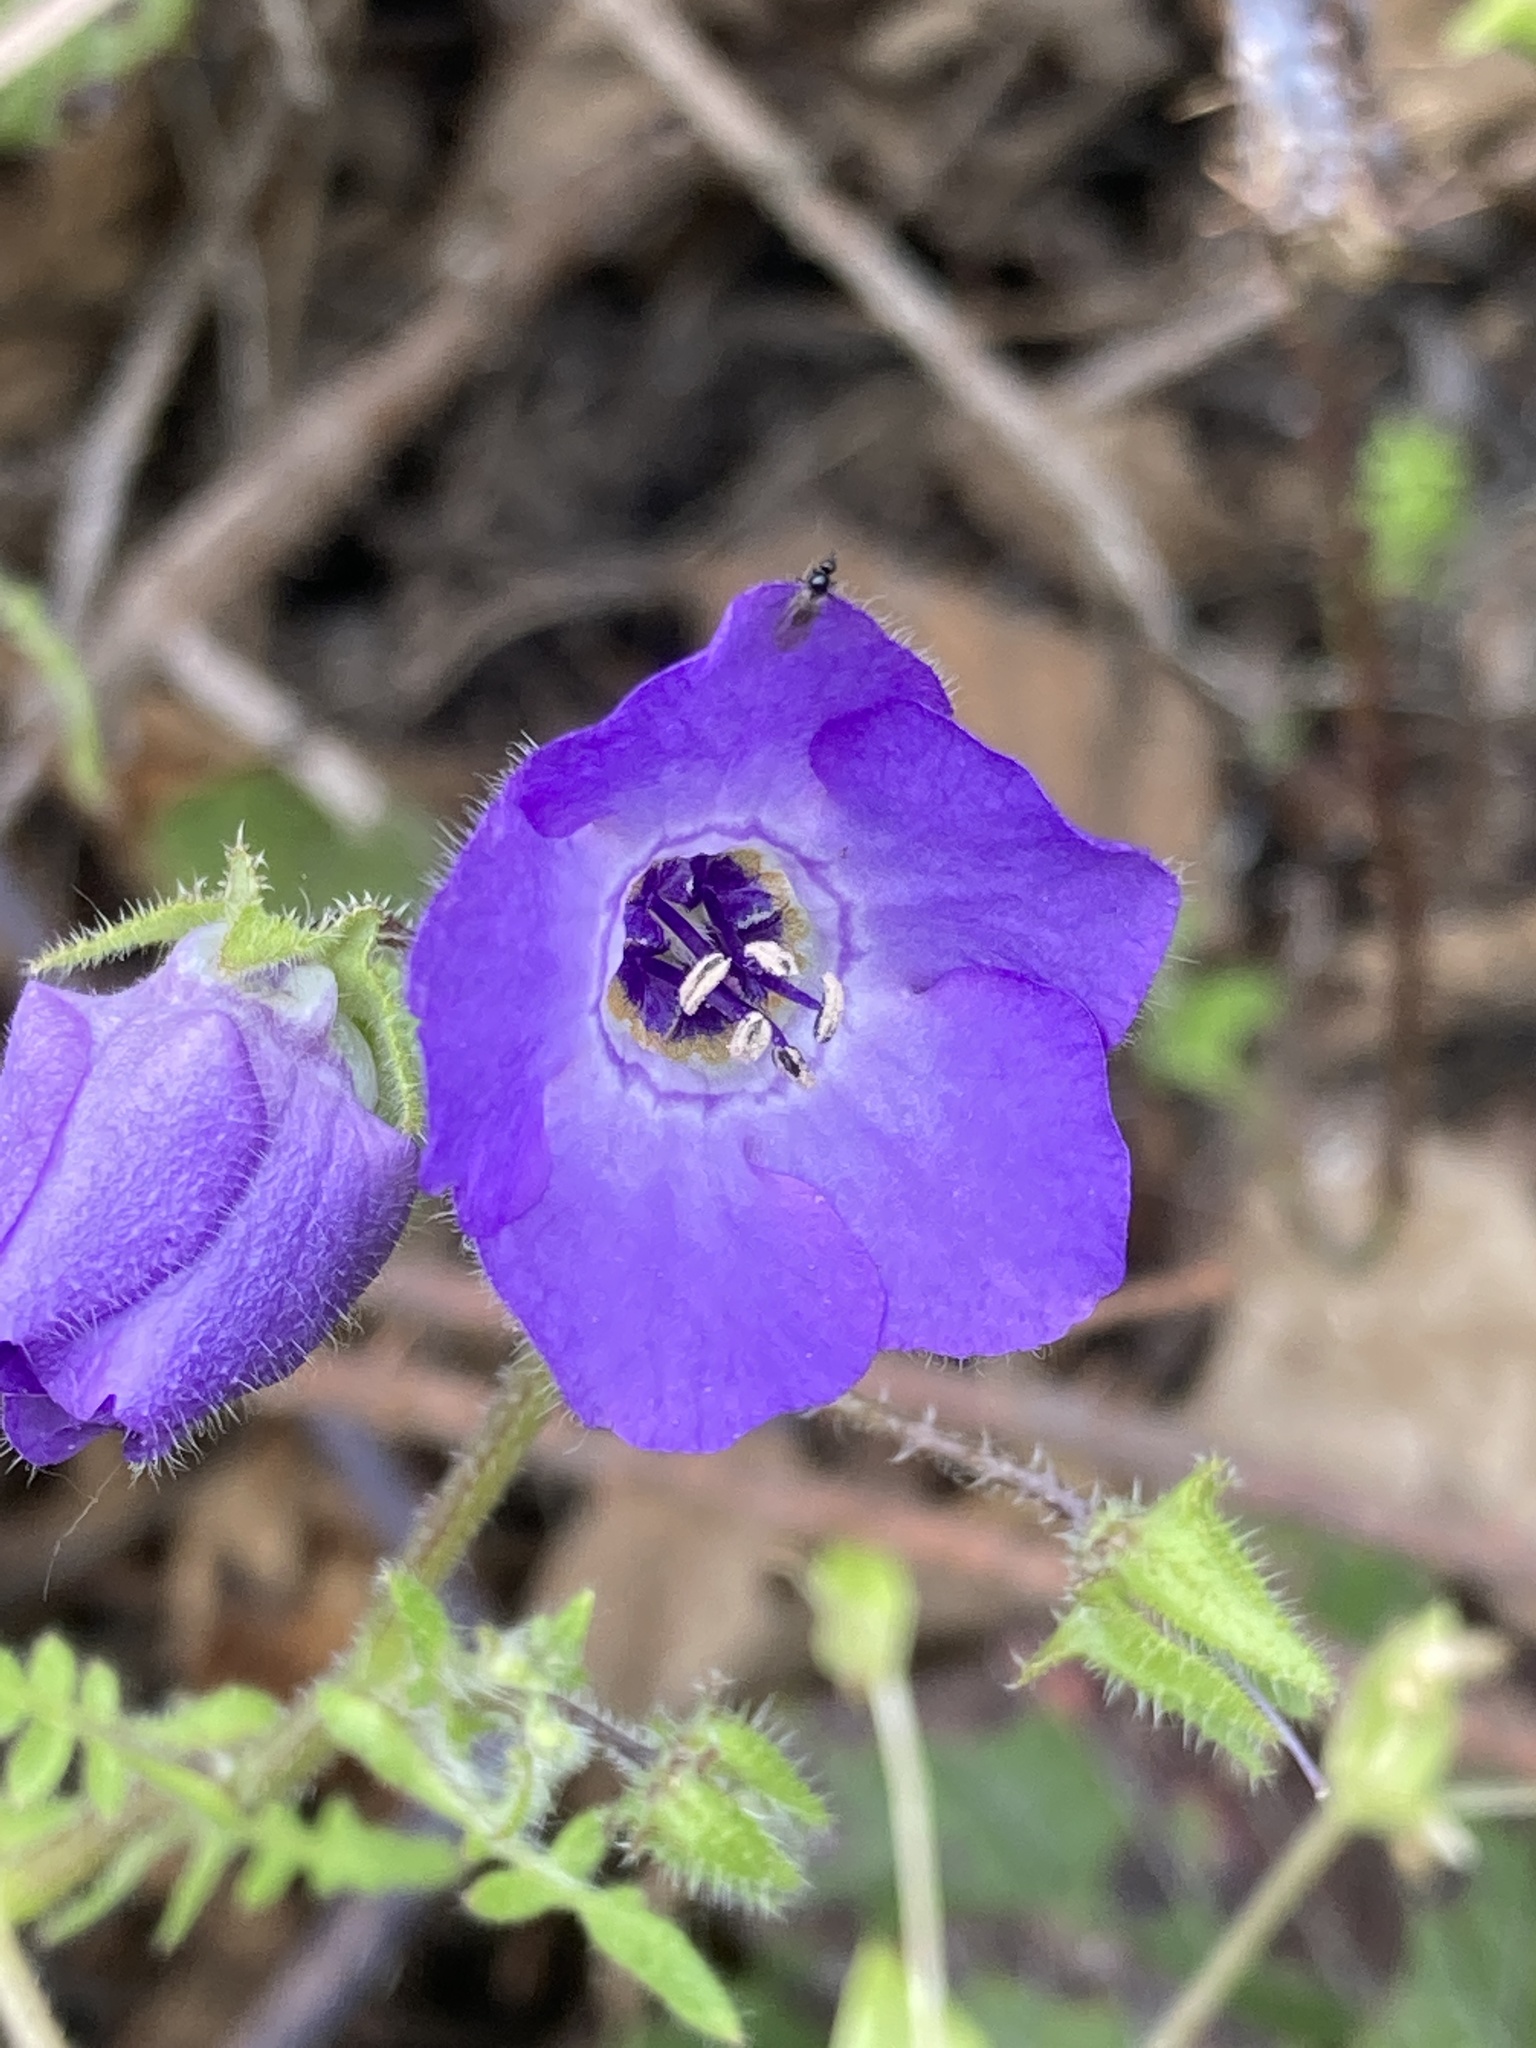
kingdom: Plantae
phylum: Tracheophyta
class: Magnoliopsida
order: Boraginales
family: Hydrophyllaceae
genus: Pholistoma
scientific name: Pholistoma auritum
